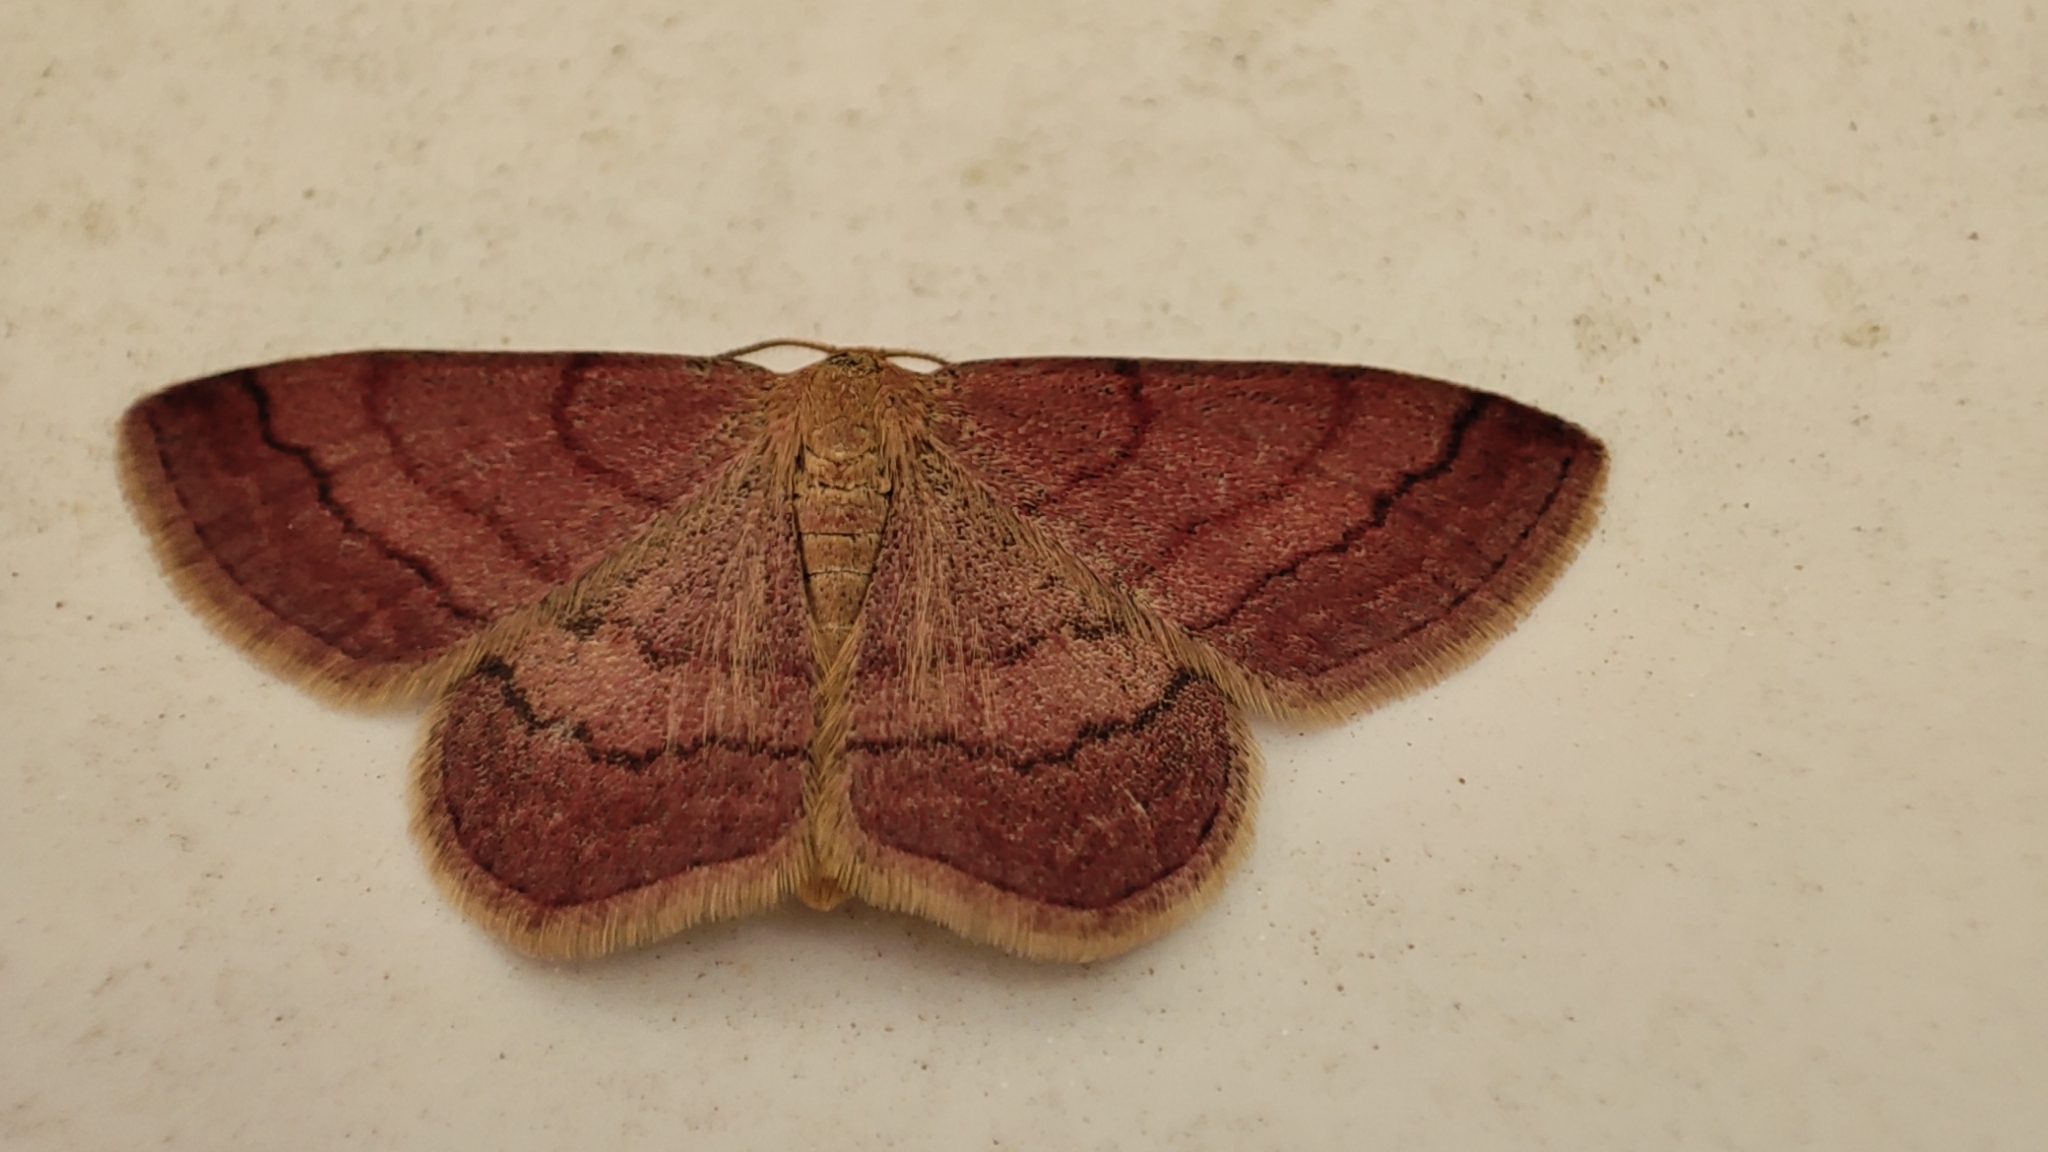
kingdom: Animalia
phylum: Arthropoda
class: Insecta
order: Lepidoptera
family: Geometridae
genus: Scopula
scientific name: Scopula rubiginata
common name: Tawny wave
